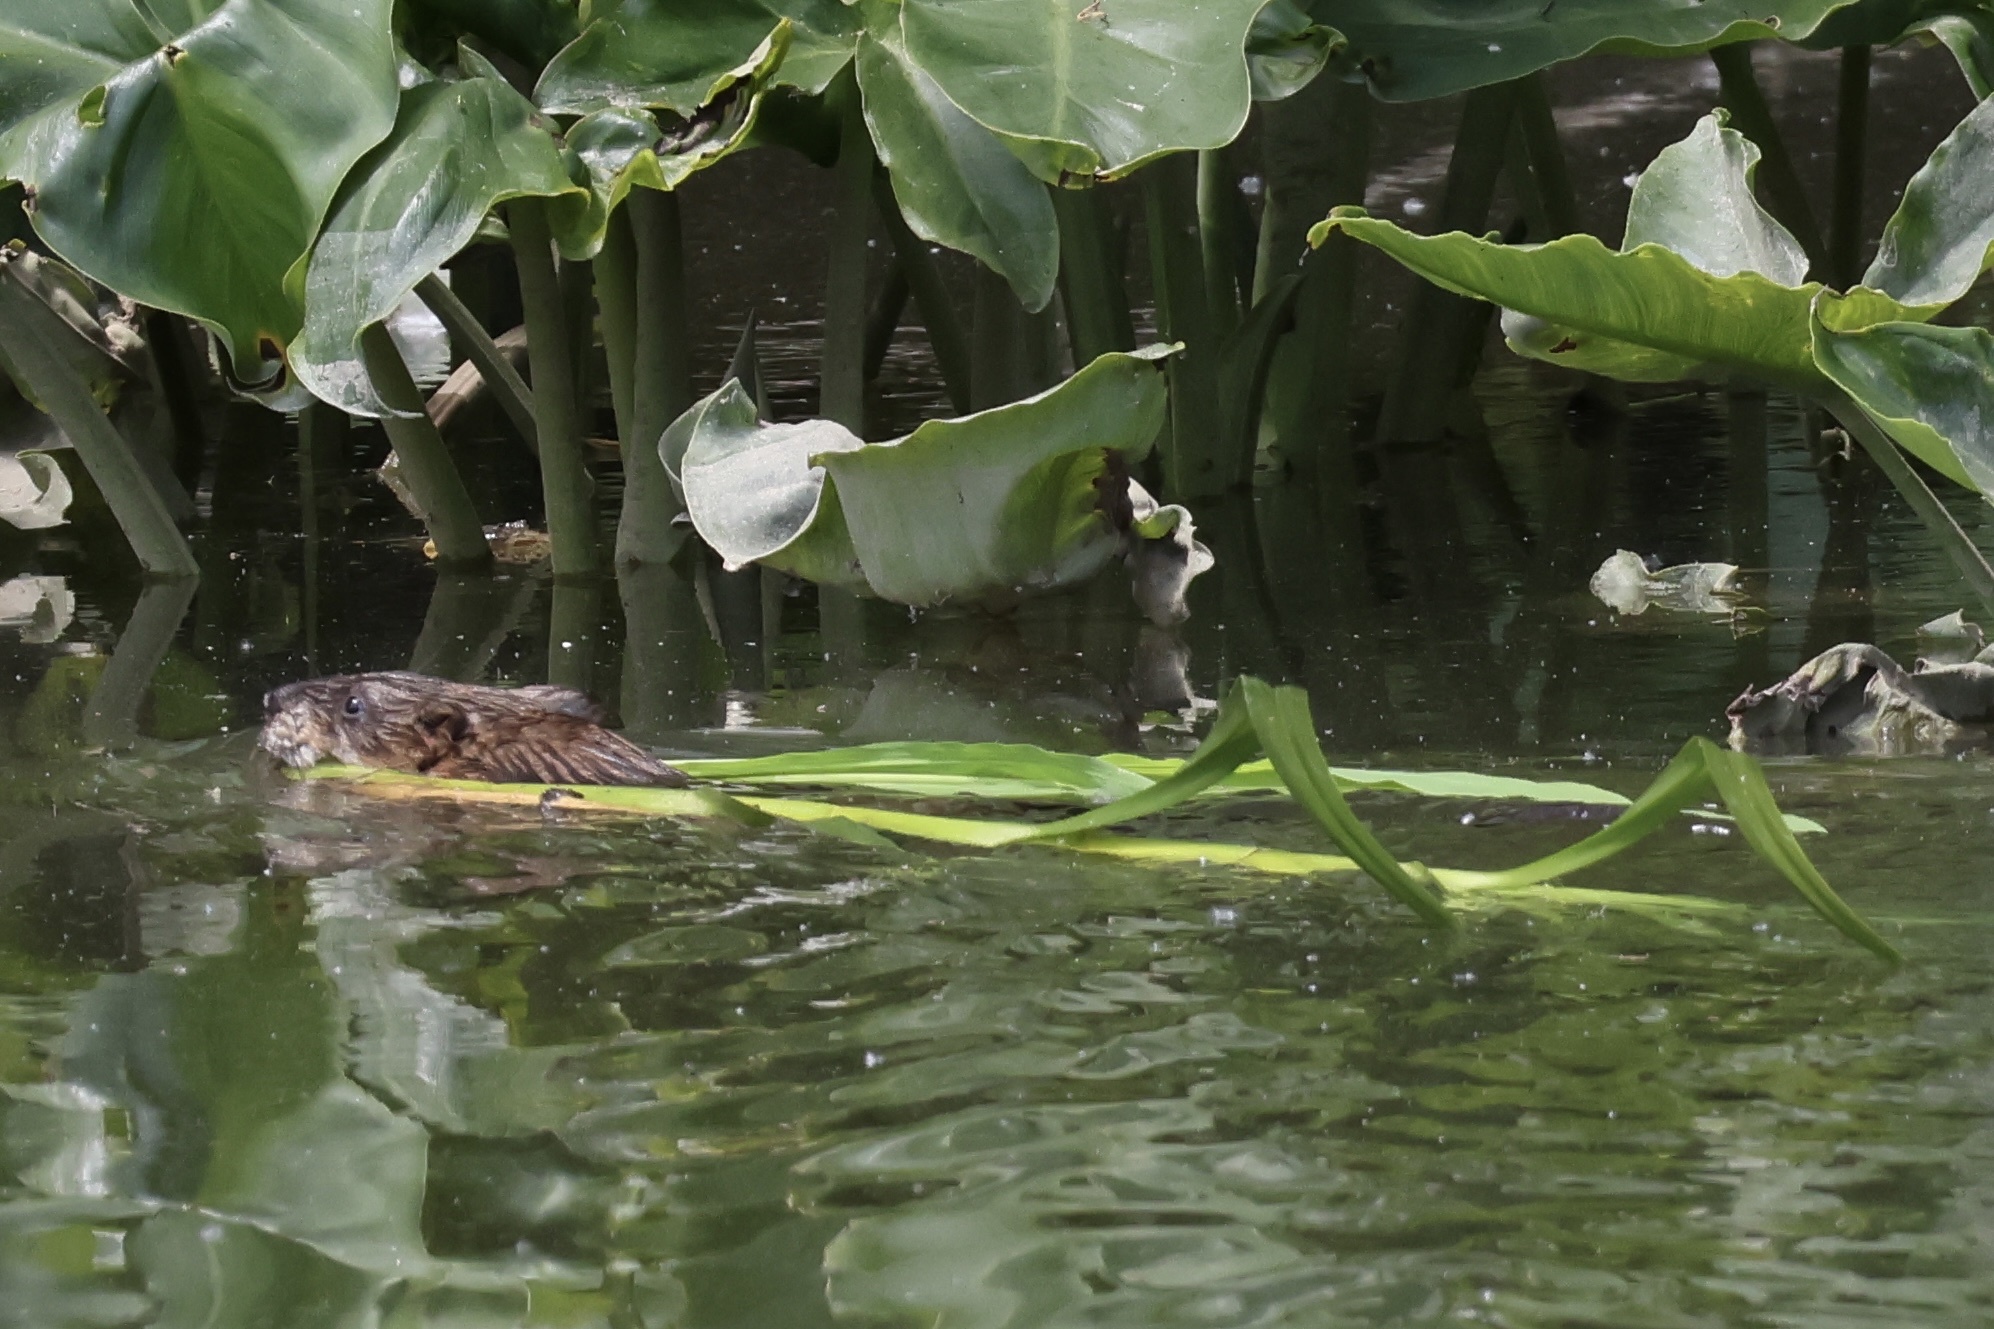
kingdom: Animalia
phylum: Chordata
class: Mammalia
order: Rodentia
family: Cricetidae
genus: Ondatra
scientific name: Ondatra zibethicus
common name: Muskrat
